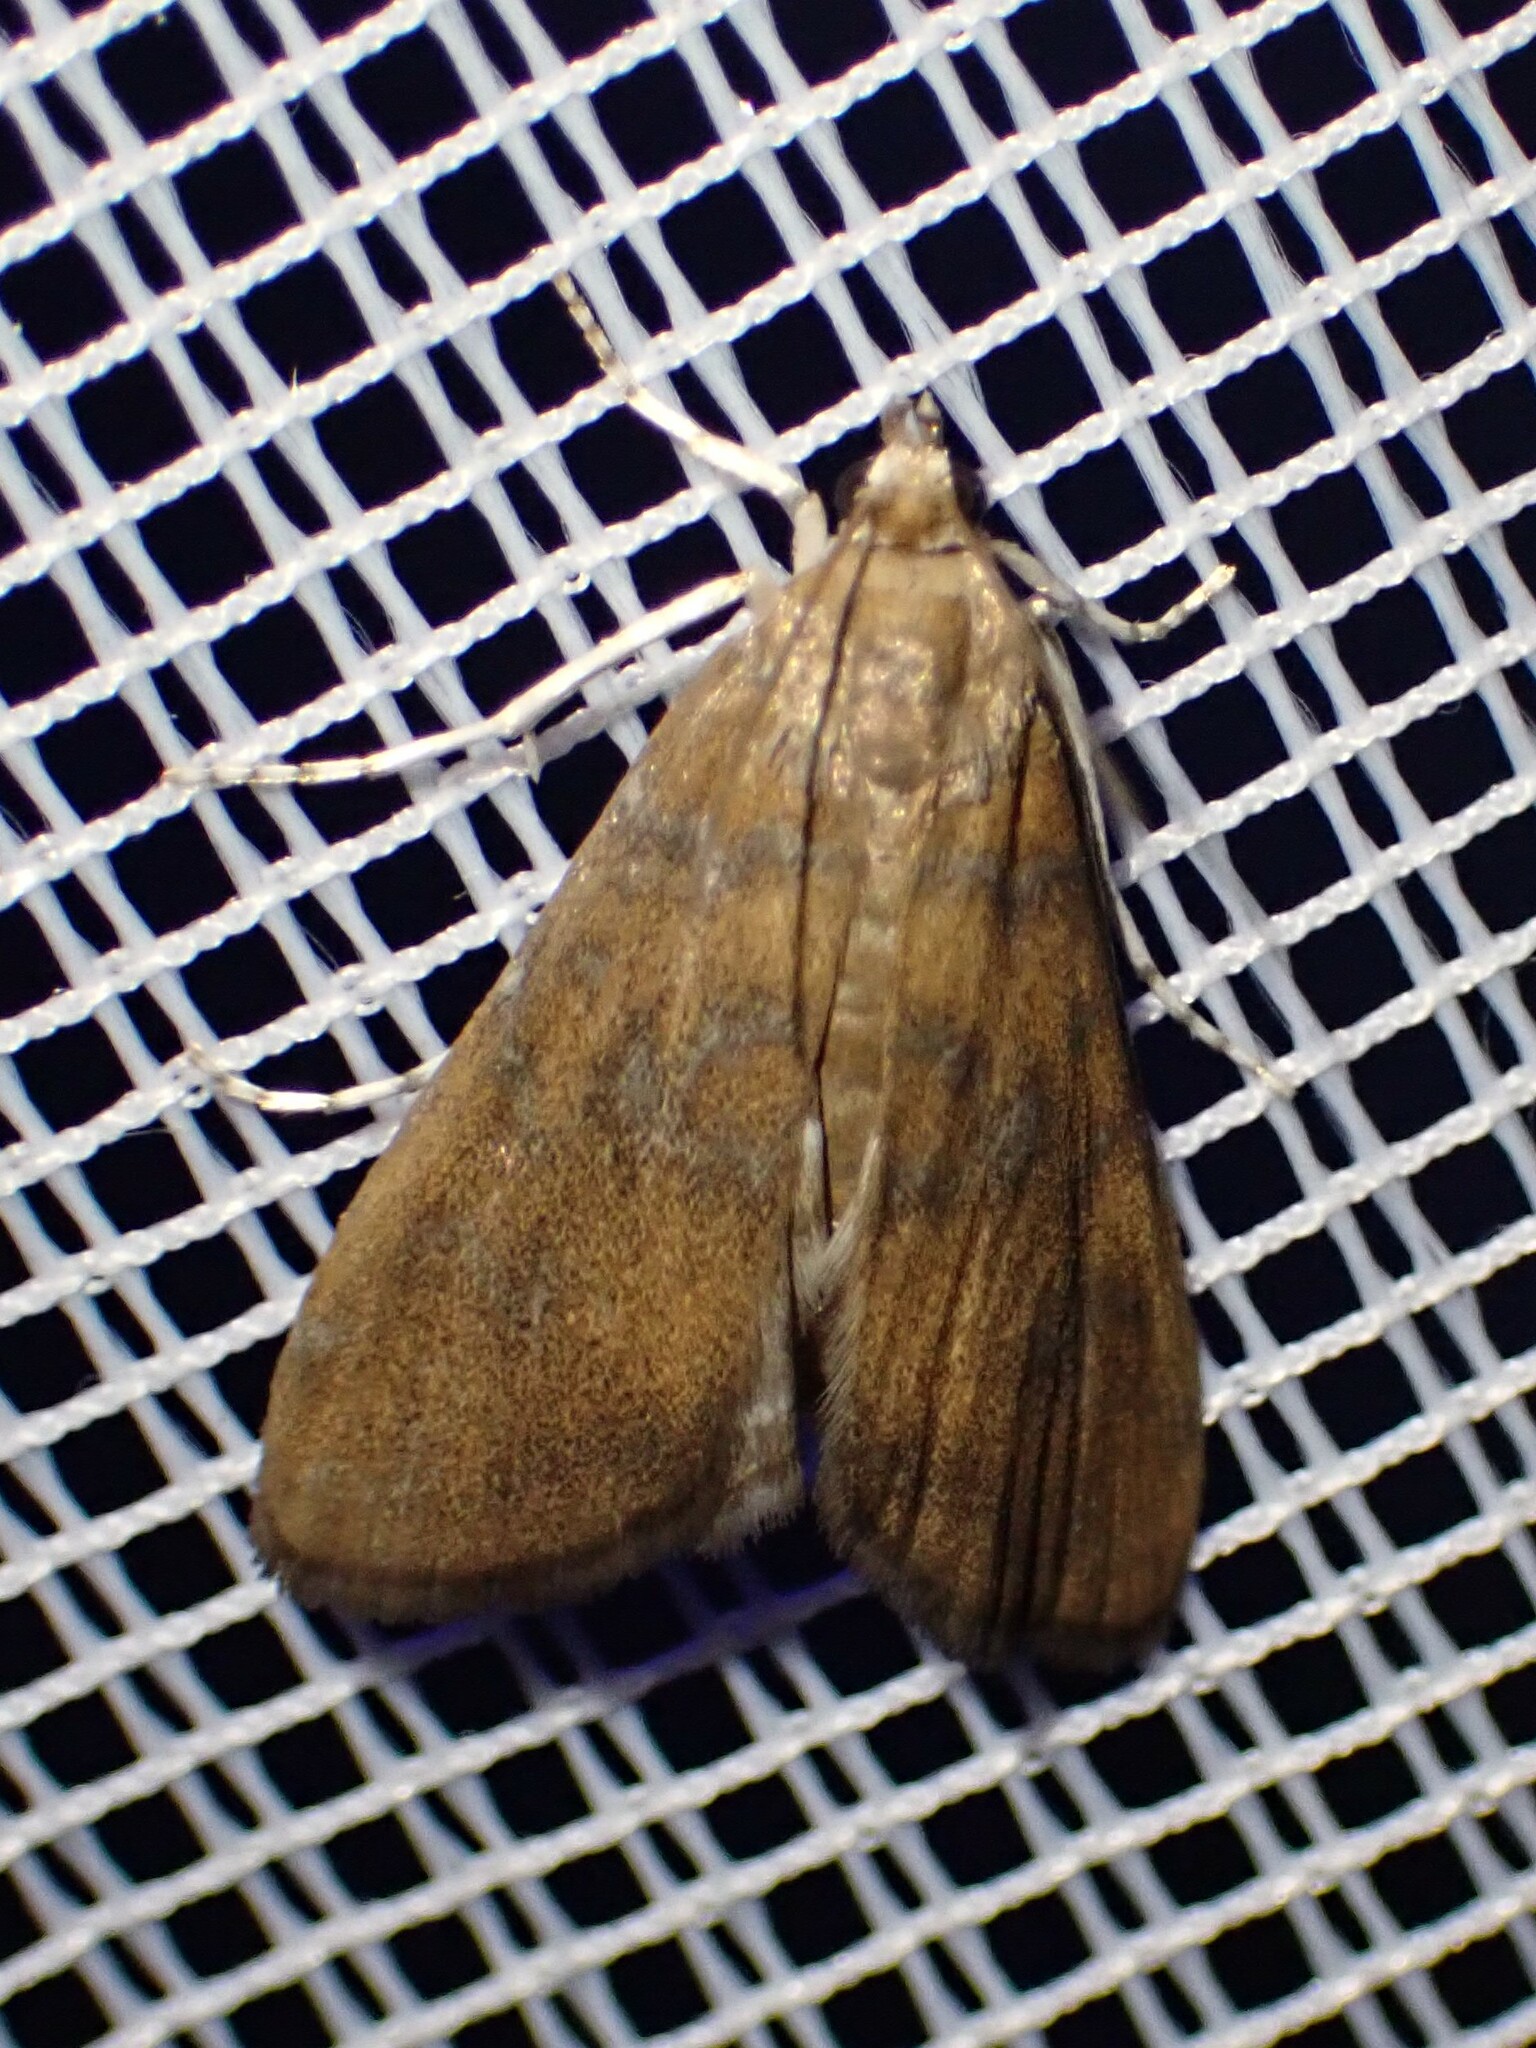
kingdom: Animalia
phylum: Arthropoda
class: Insecta
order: Lepidoptera
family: Crambidae
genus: Elophila
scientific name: Elophila gyralis
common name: Waterlily borer moth
